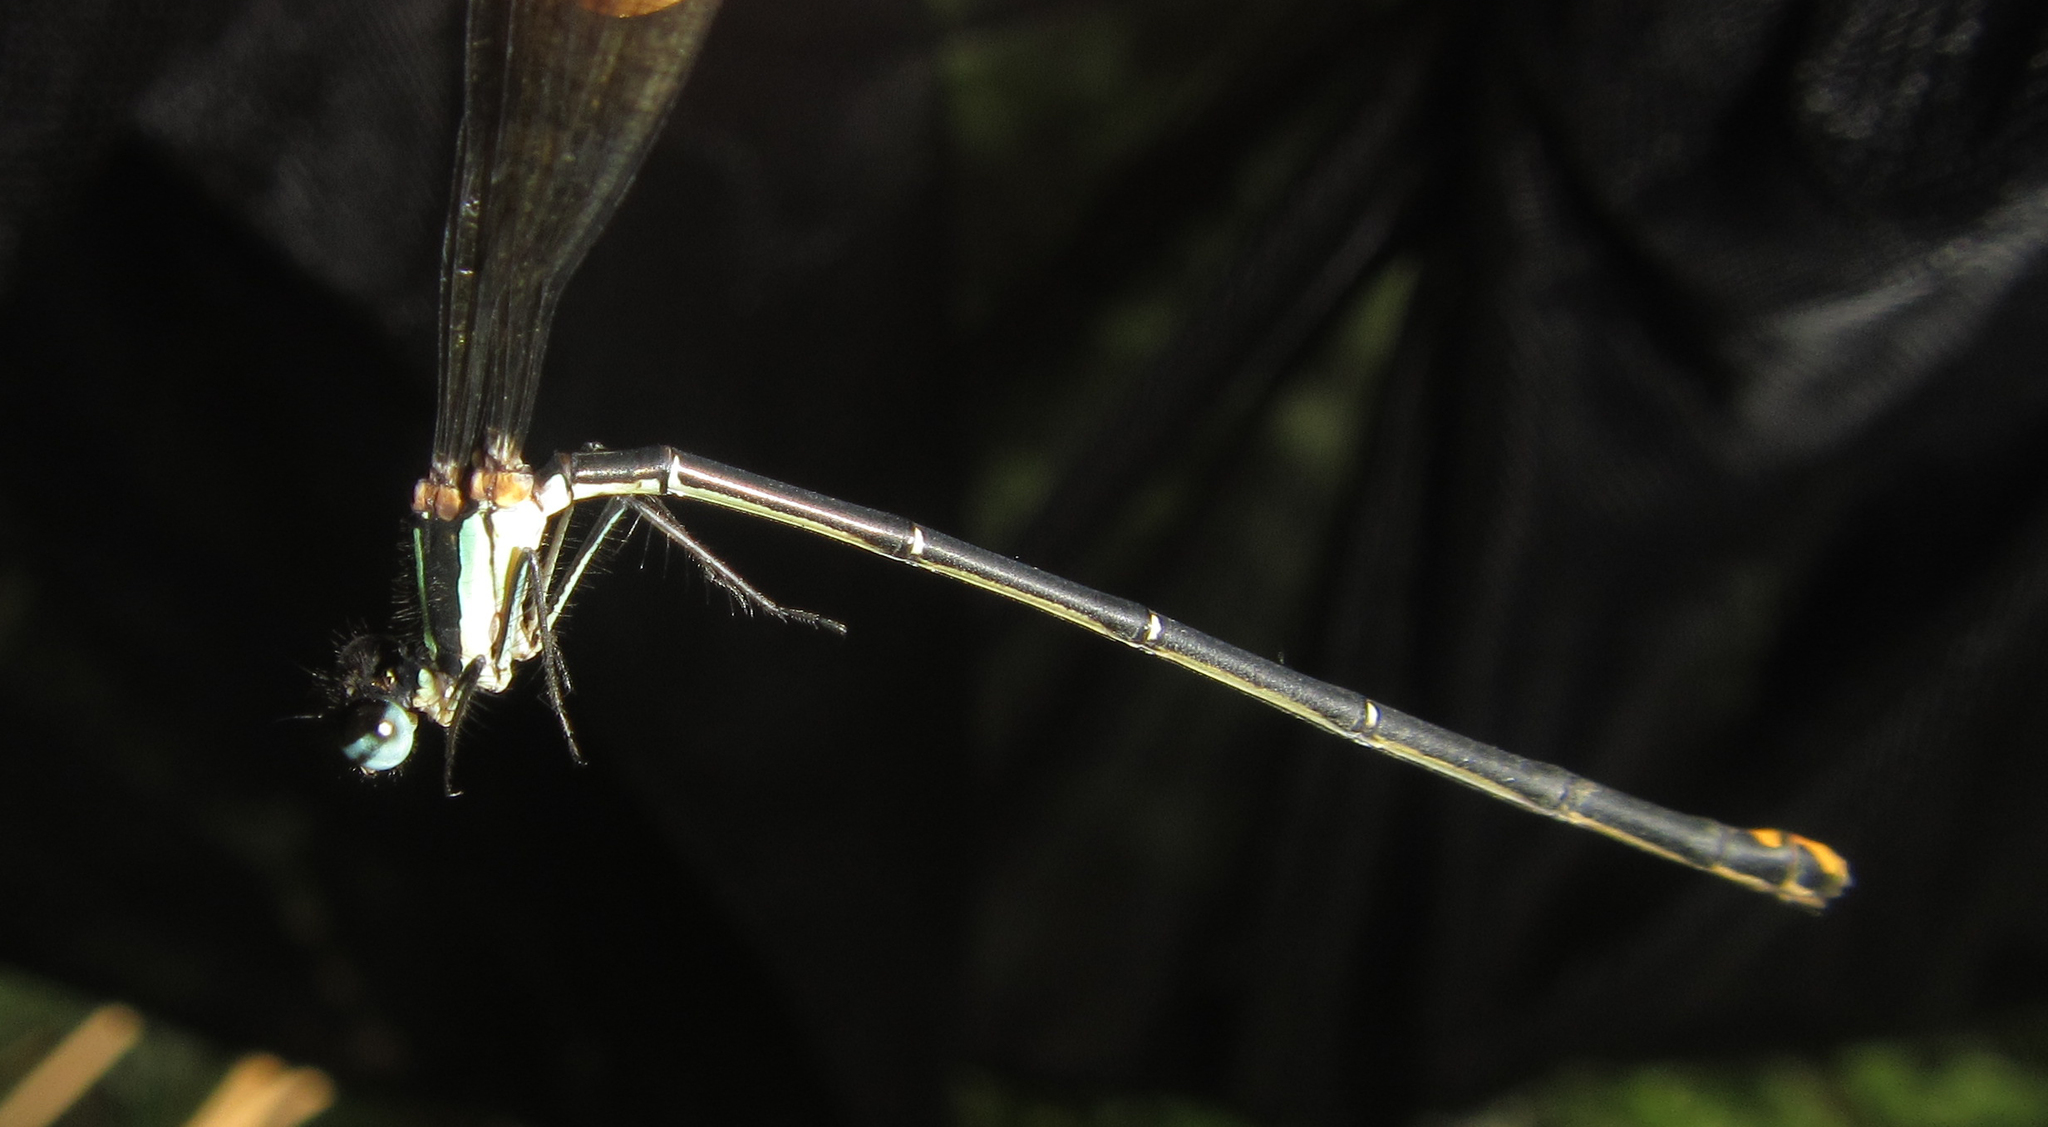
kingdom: Animalia
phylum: Arthropoda
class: Insecta
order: Odonata
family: Platycnemididae
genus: Allocnemis
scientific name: Allocnemis leucosticta
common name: Goldtail
